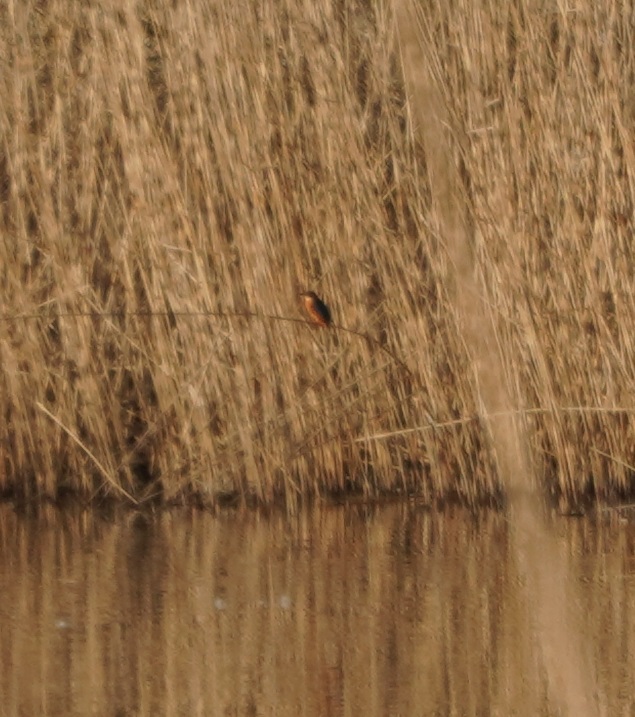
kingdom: Animalia
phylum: Chordata
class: Aves
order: Coraciiformes
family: Alcedinidae
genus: Alcedo
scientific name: Alcedo atthis
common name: Common kingfisher
